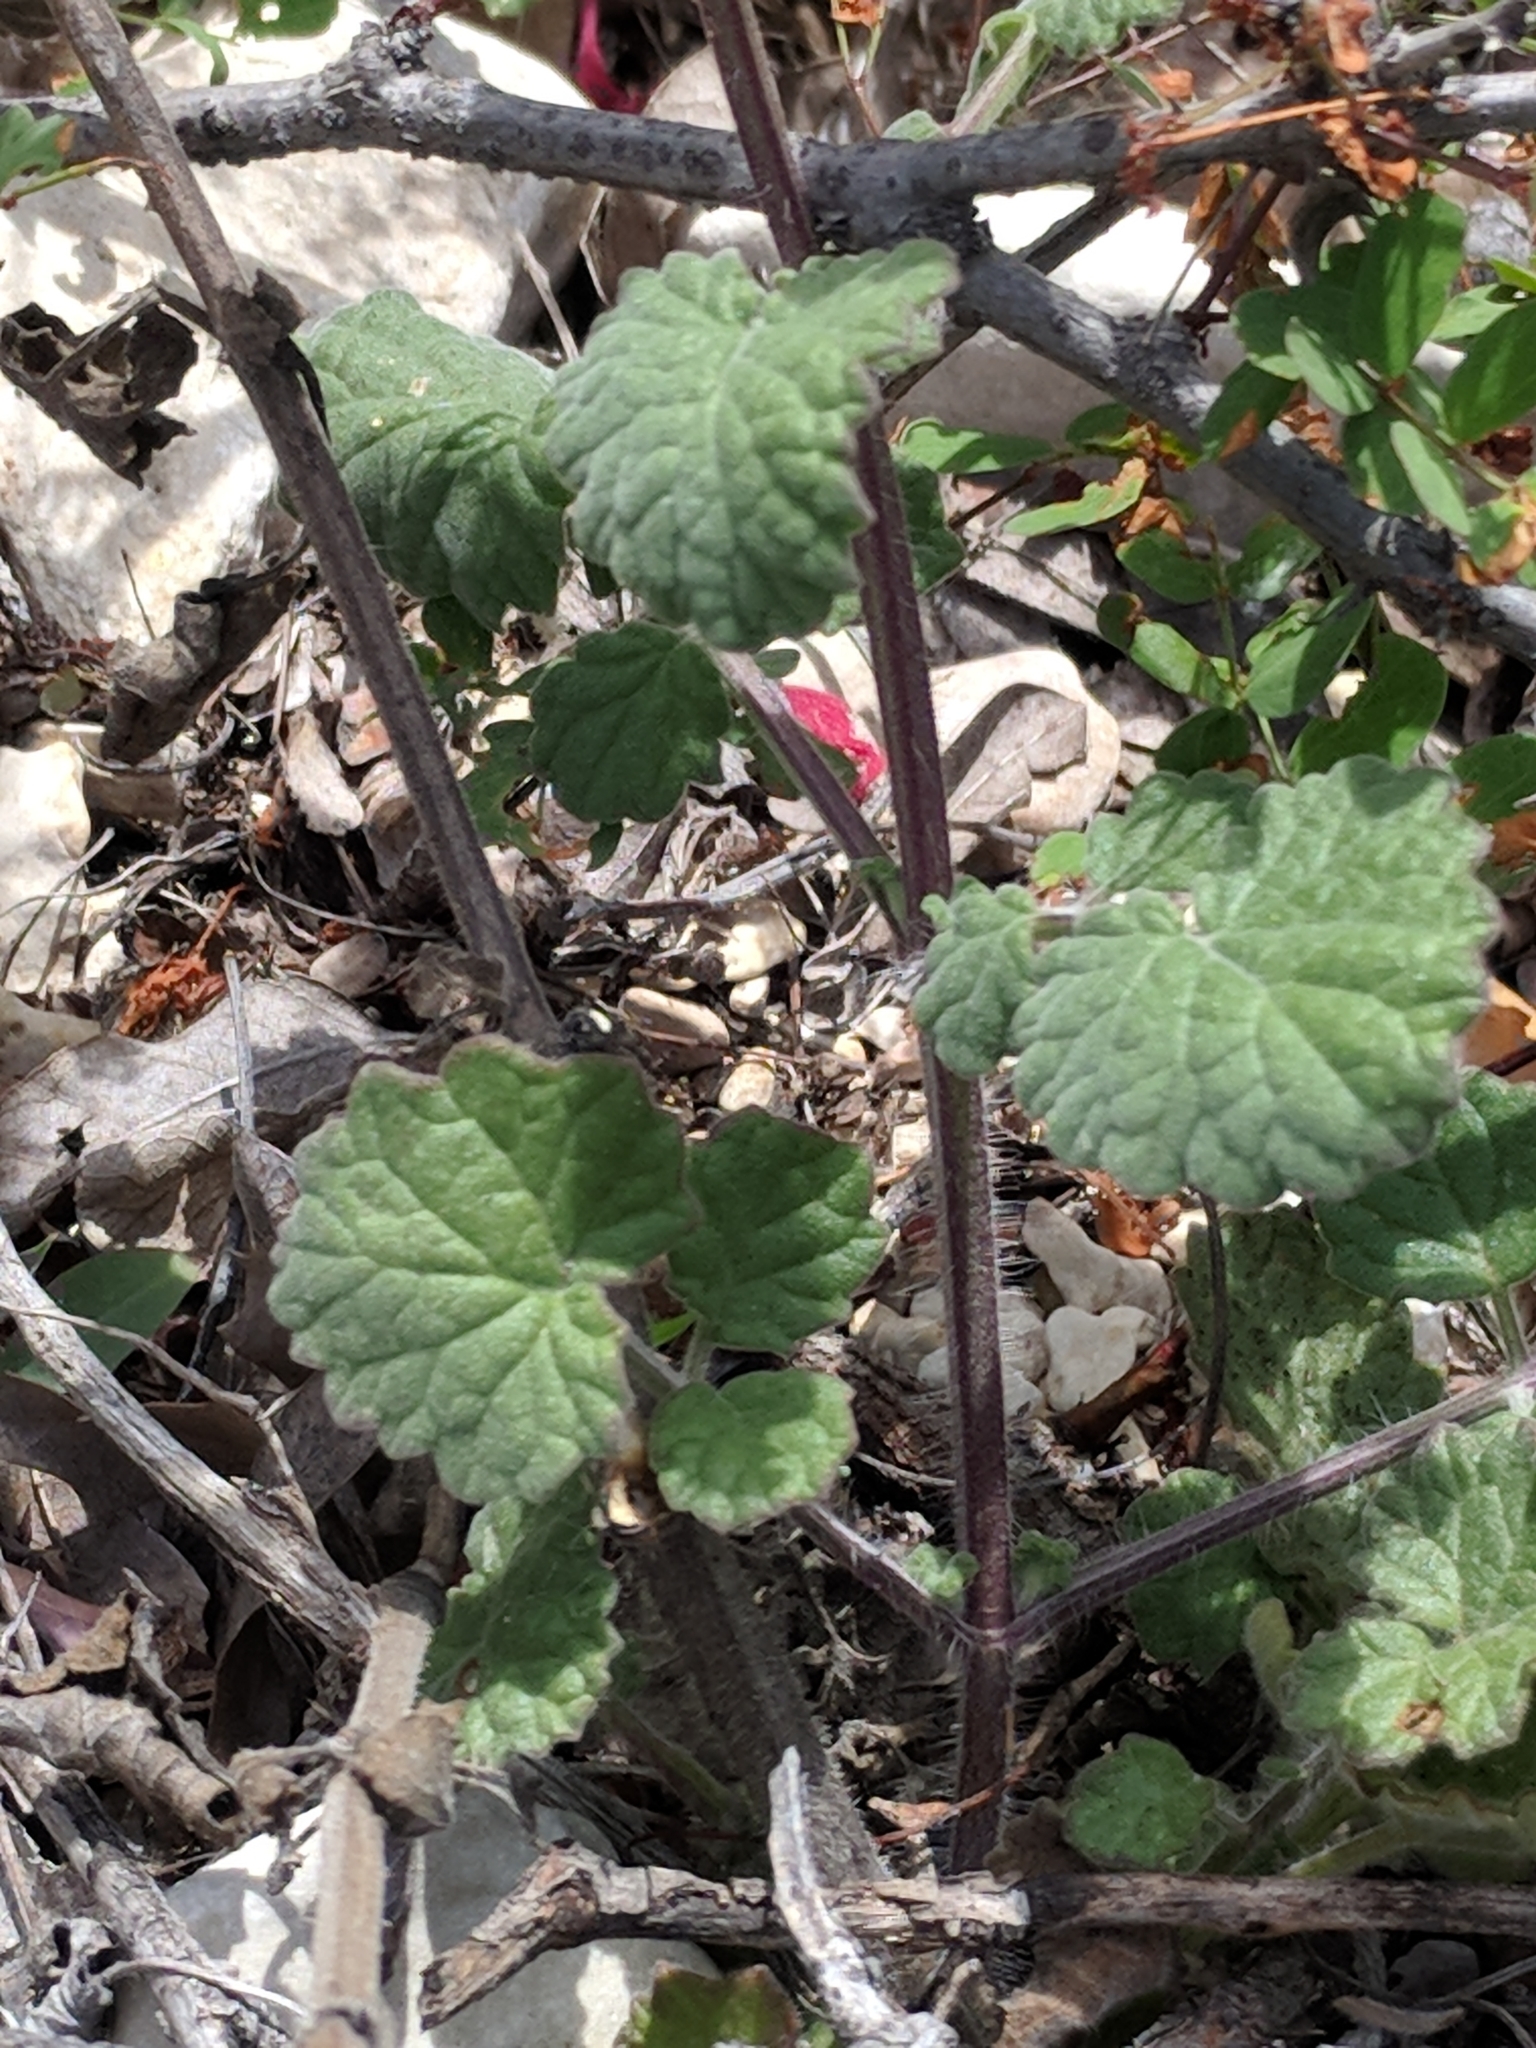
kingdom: Plantae
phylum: Tracheophyta
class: Magnoliopsida
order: Lamiales
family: Lamiaceae
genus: Salvia
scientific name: Salvia roemeriana
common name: Cedar sage
